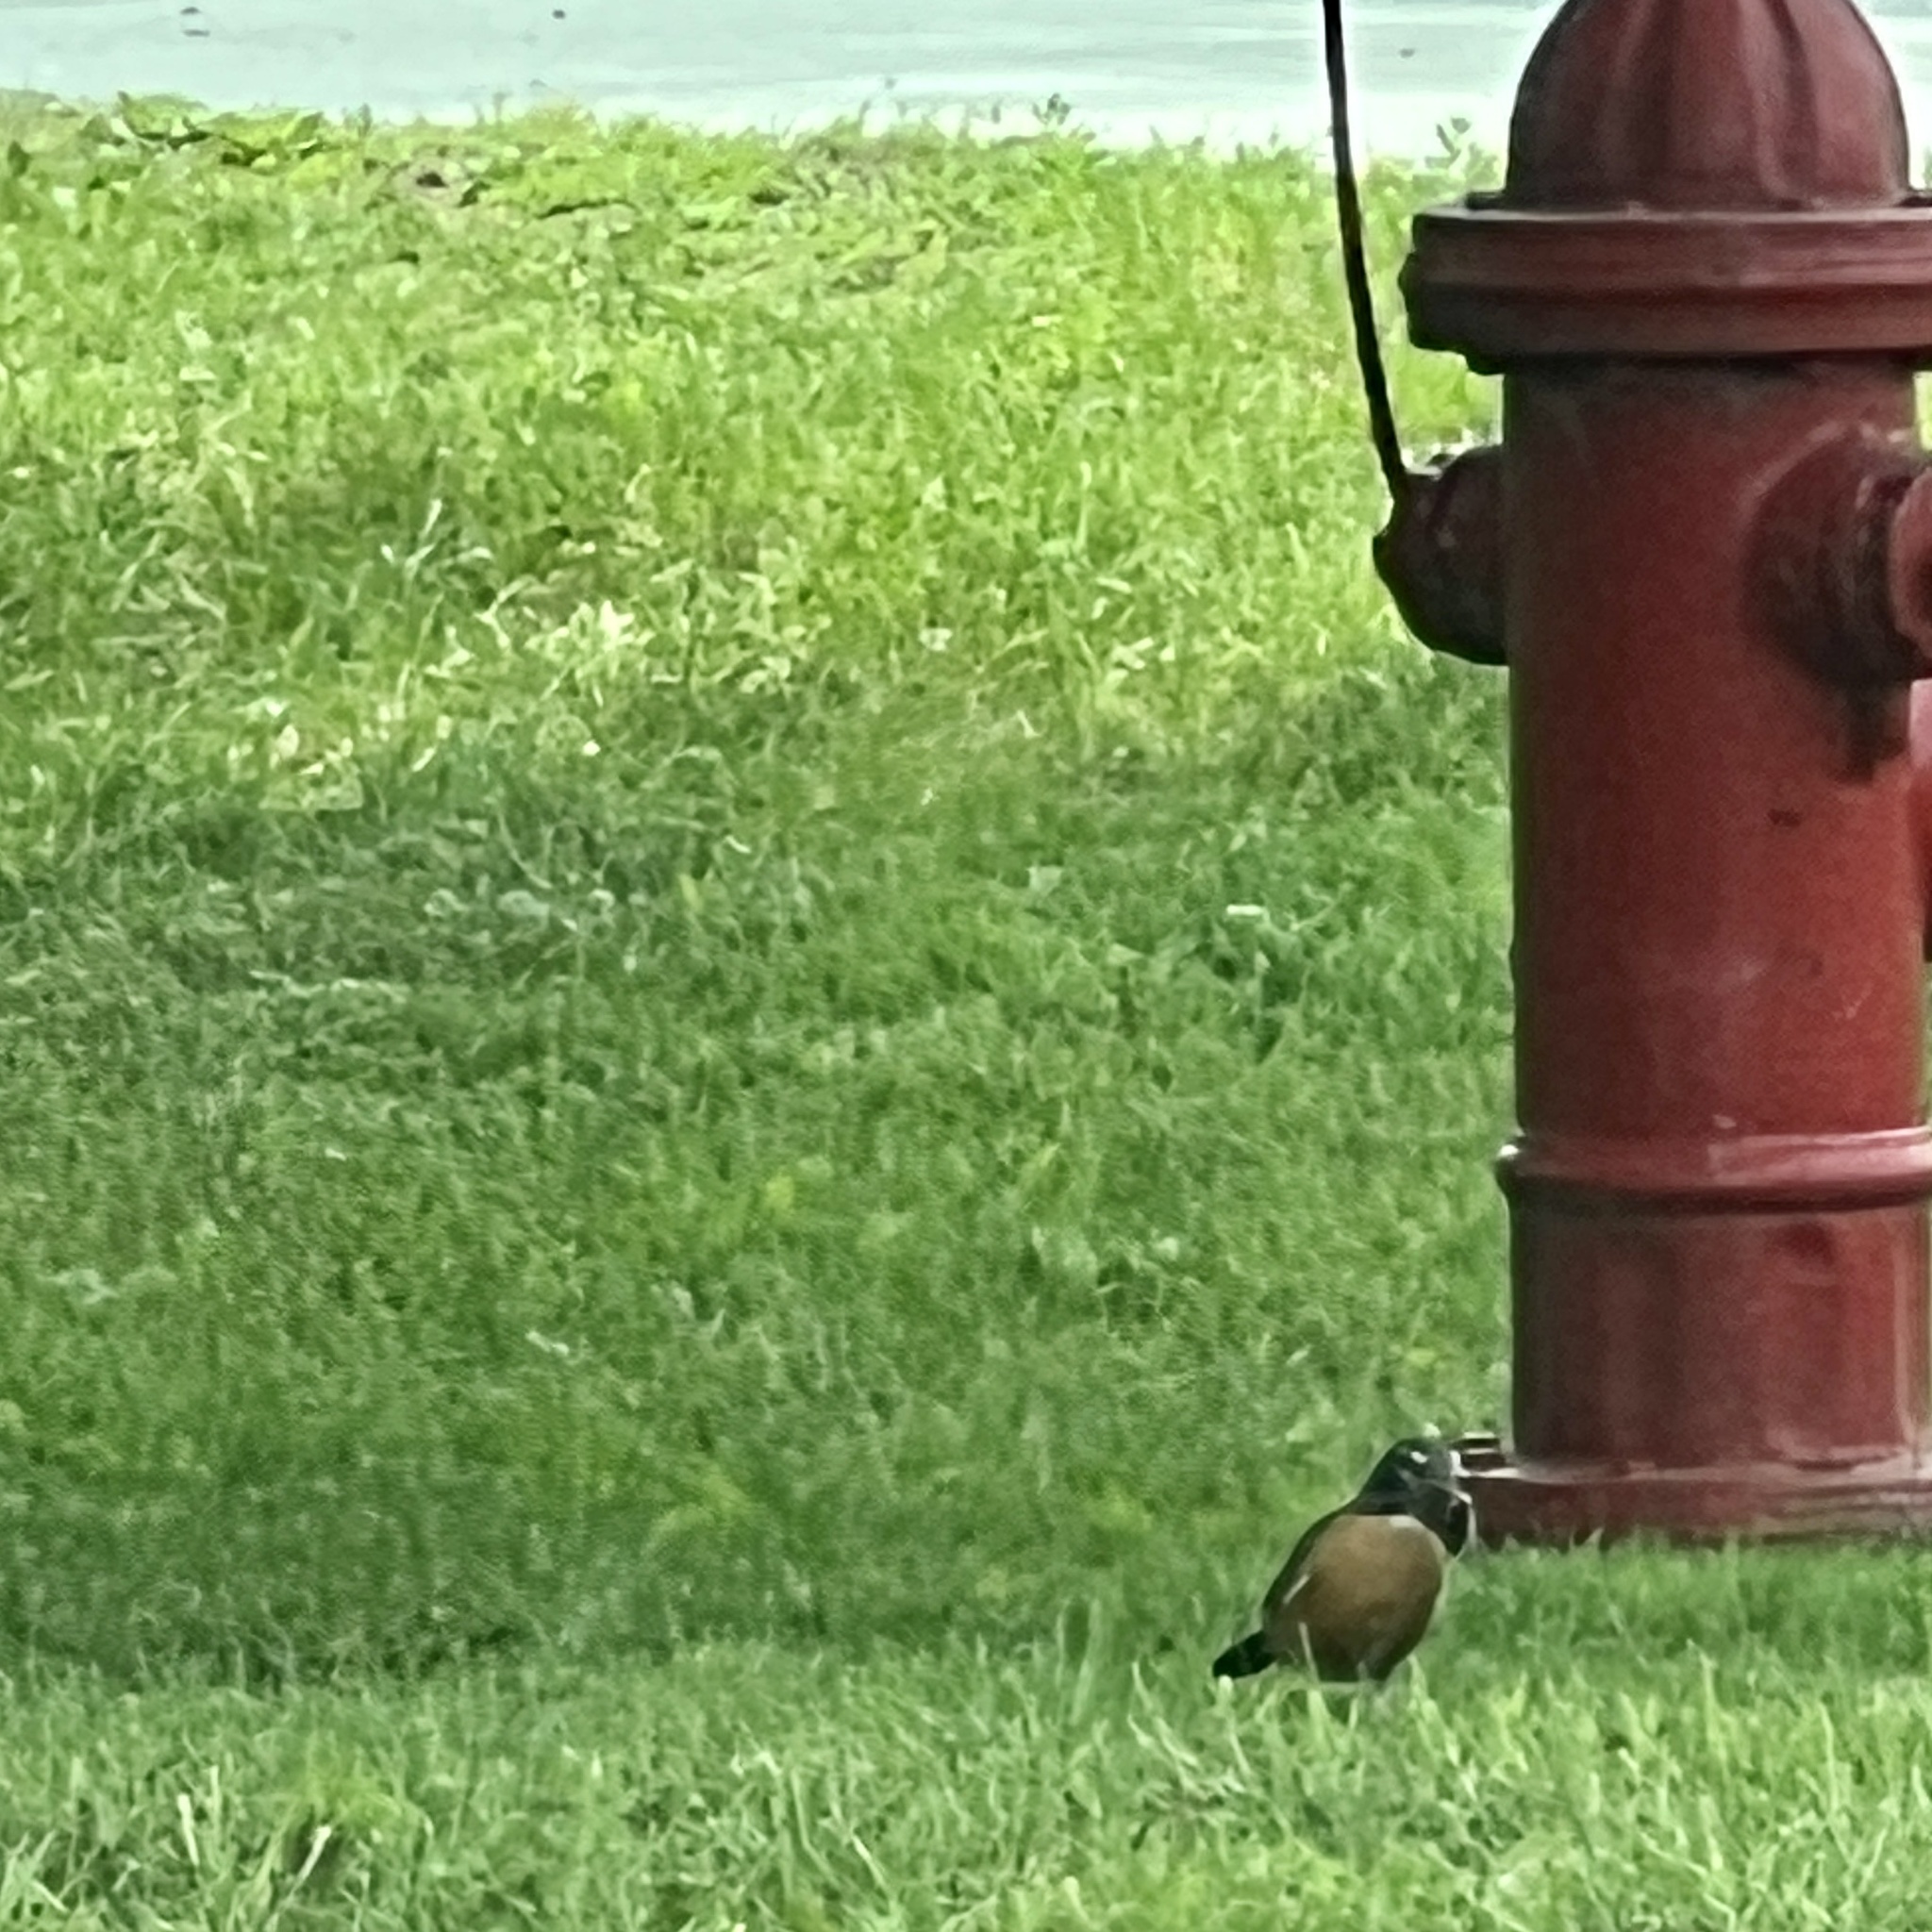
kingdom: Animalia
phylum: Chordata
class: Aves
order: Passeriformes
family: Turdidae
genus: Turdus
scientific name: Turdus migratorius
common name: American robin
